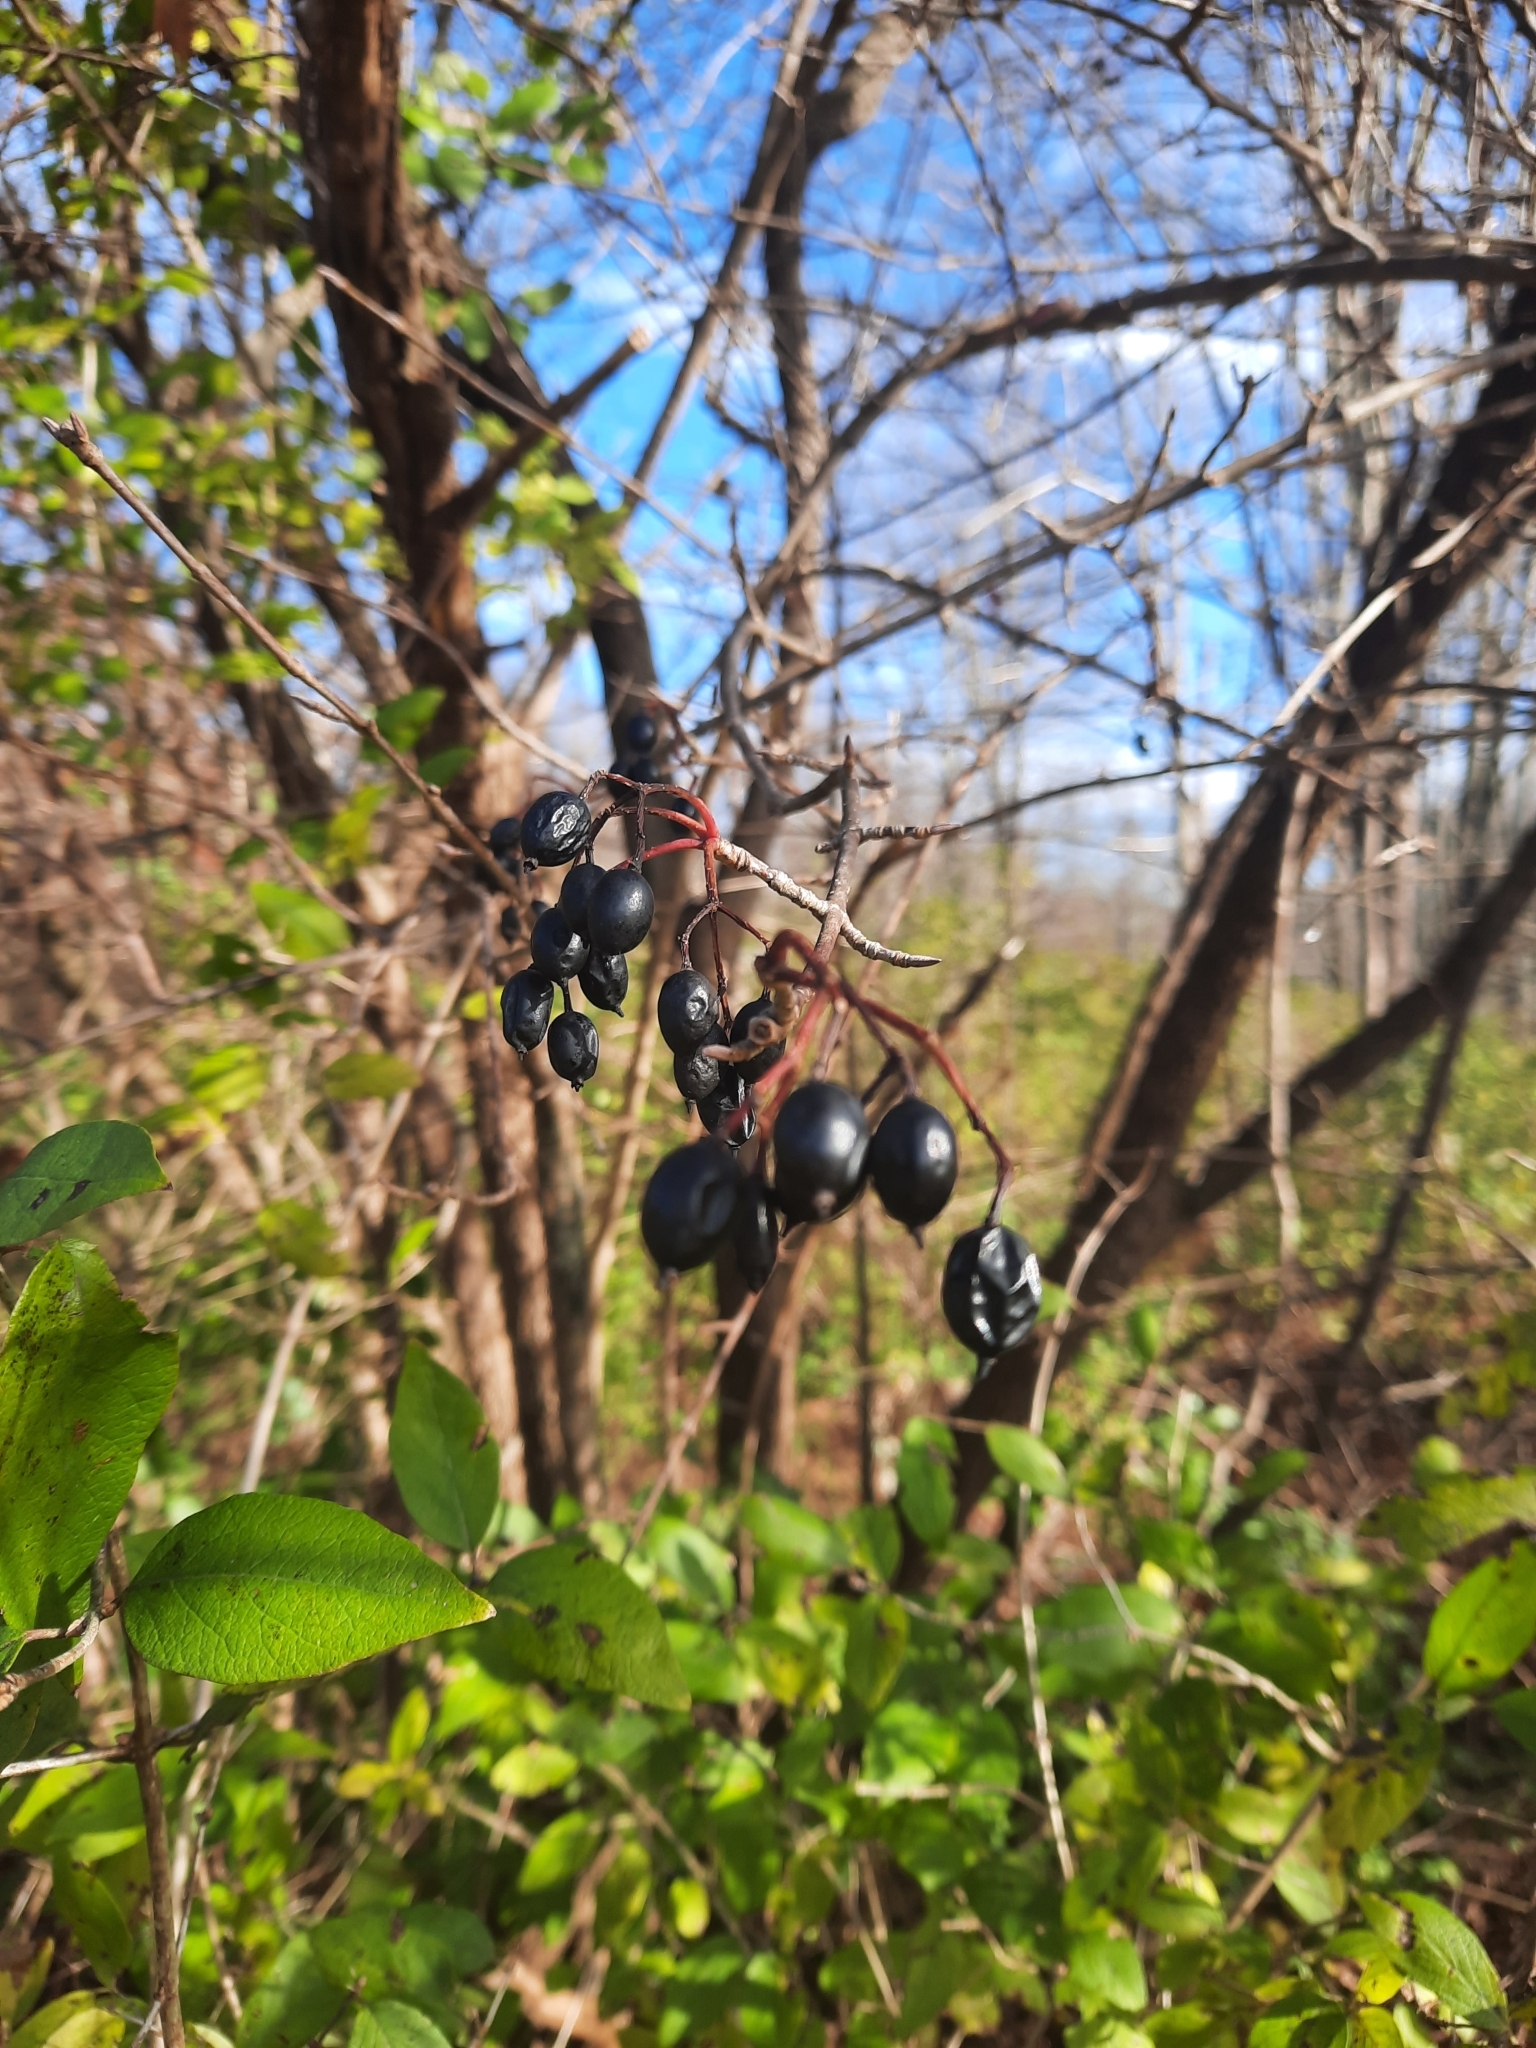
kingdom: Plantae
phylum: Tracheophyta
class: Magnoliopsida
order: Dipsacales
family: Viburnaceae
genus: Viburnum
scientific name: Viburnum prunifolium
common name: Black haw
